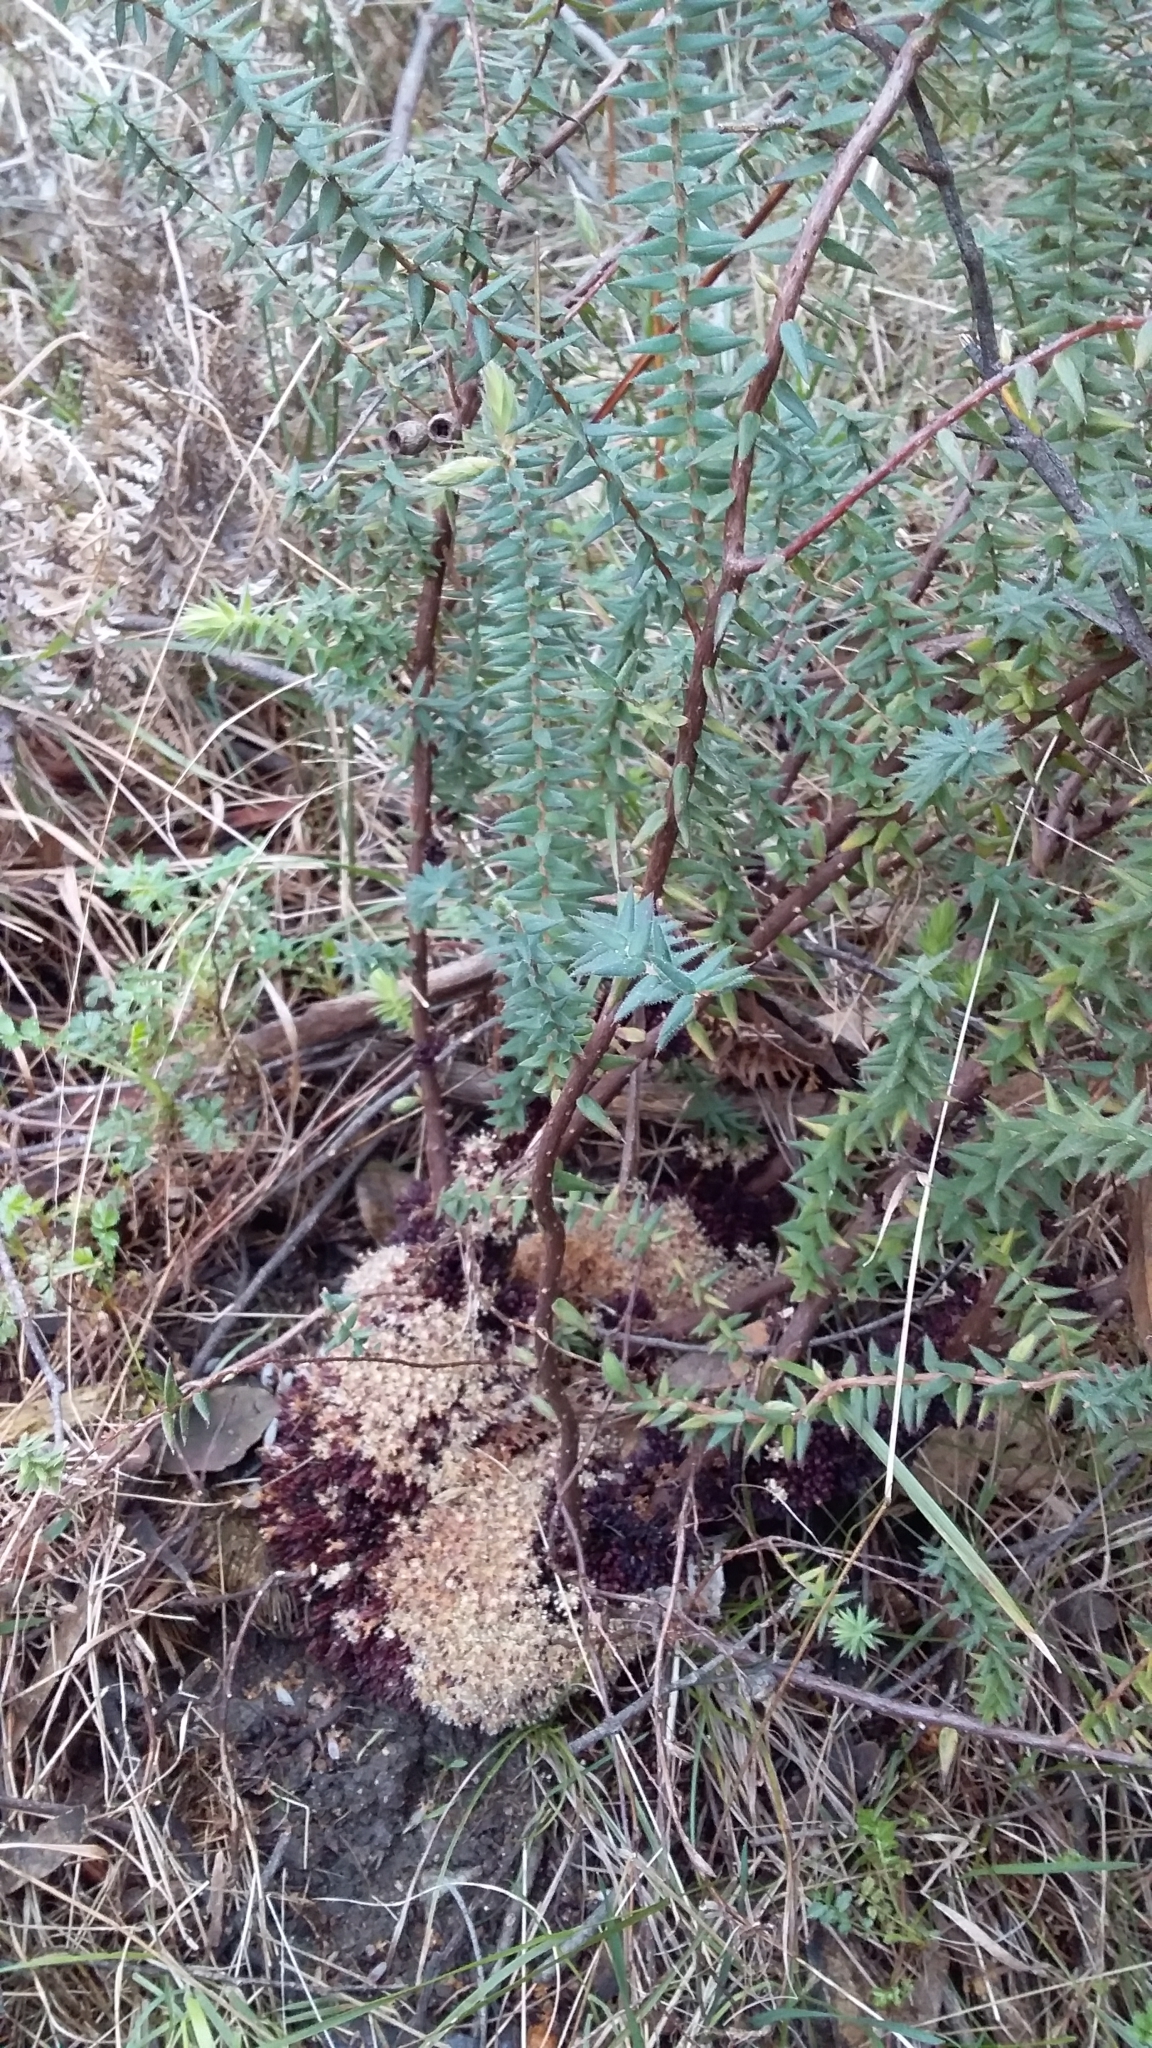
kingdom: Plantae
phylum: Tracheophyta
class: Magnoliopsida
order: Ericales
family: Ericaceae
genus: Acrotriche
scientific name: Acrotriche fasciculiflora
